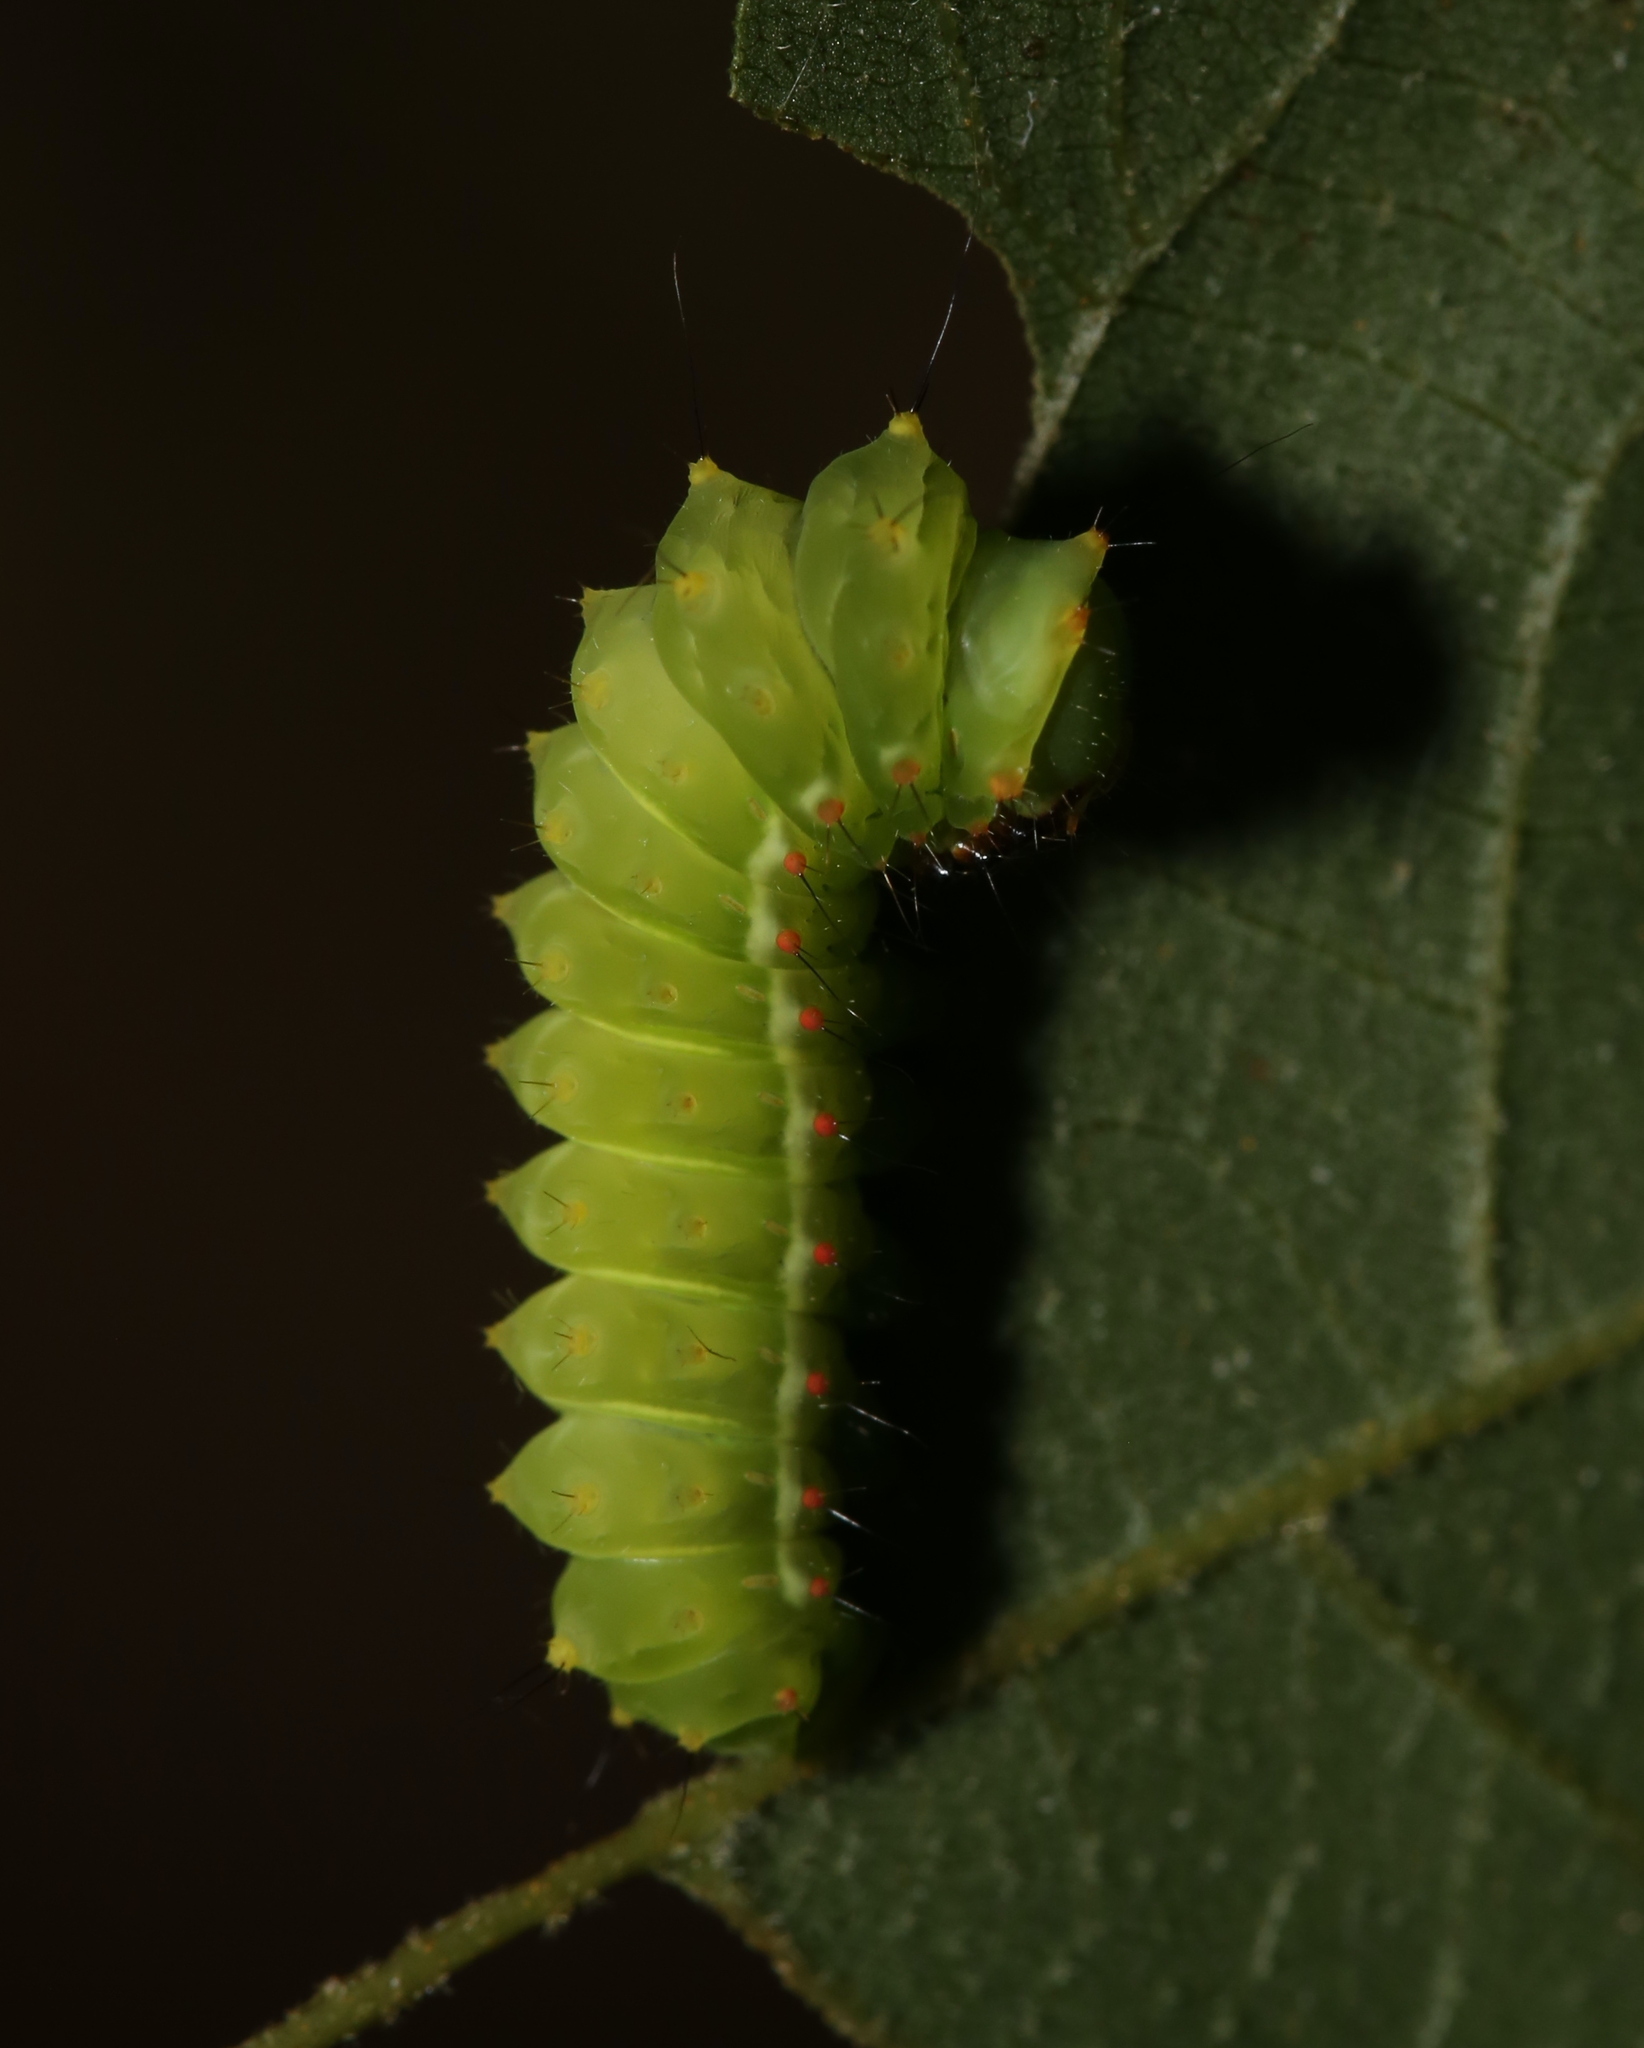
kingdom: Animalia
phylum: Arthropoda
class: Insecta
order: Lepidoptera
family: Saturniidae
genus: Actias
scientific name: Actias luna
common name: Luna moth
